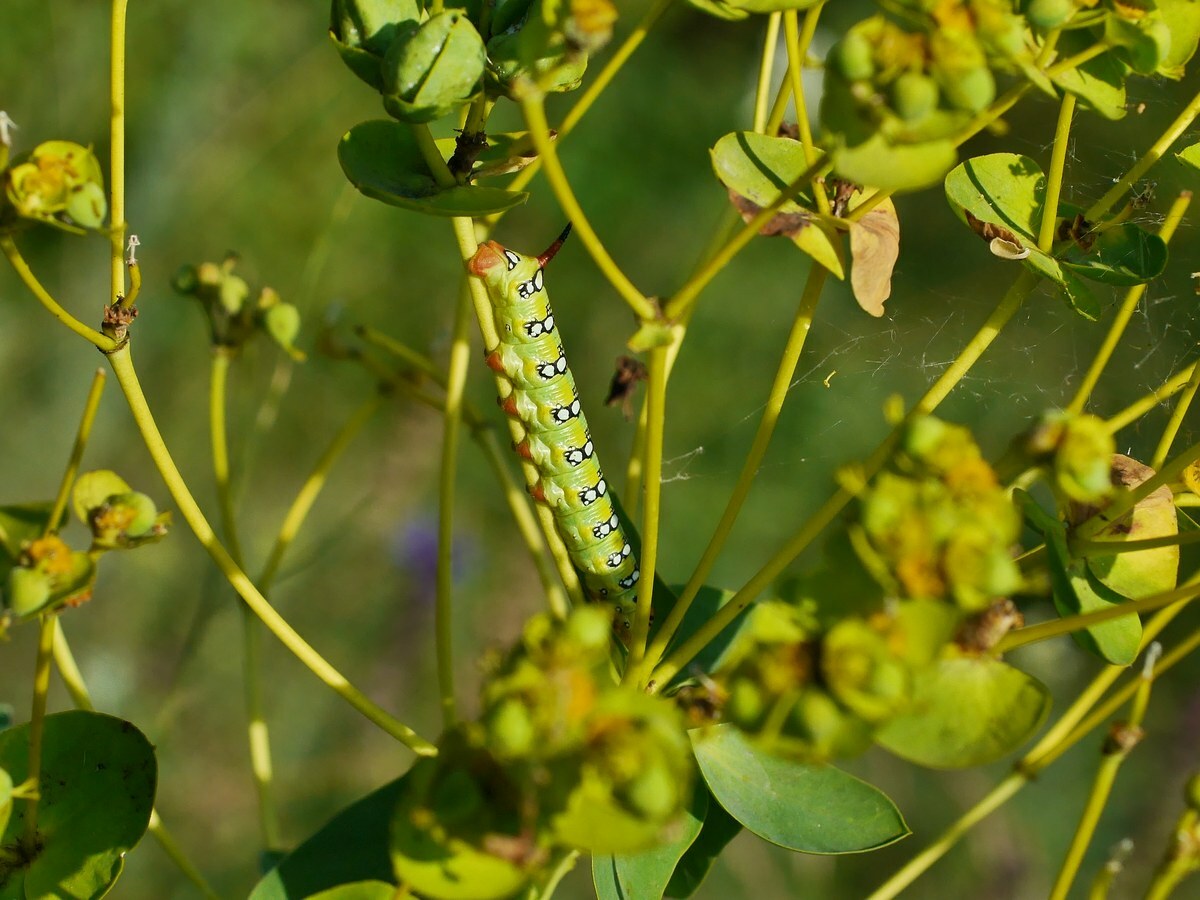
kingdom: Animalia
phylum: Arthropoda
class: Insecta
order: Lepidoptera
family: Sphingidae
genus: Hyles
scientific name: Hyles euphorbiae
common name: Spurge hawk-moth
